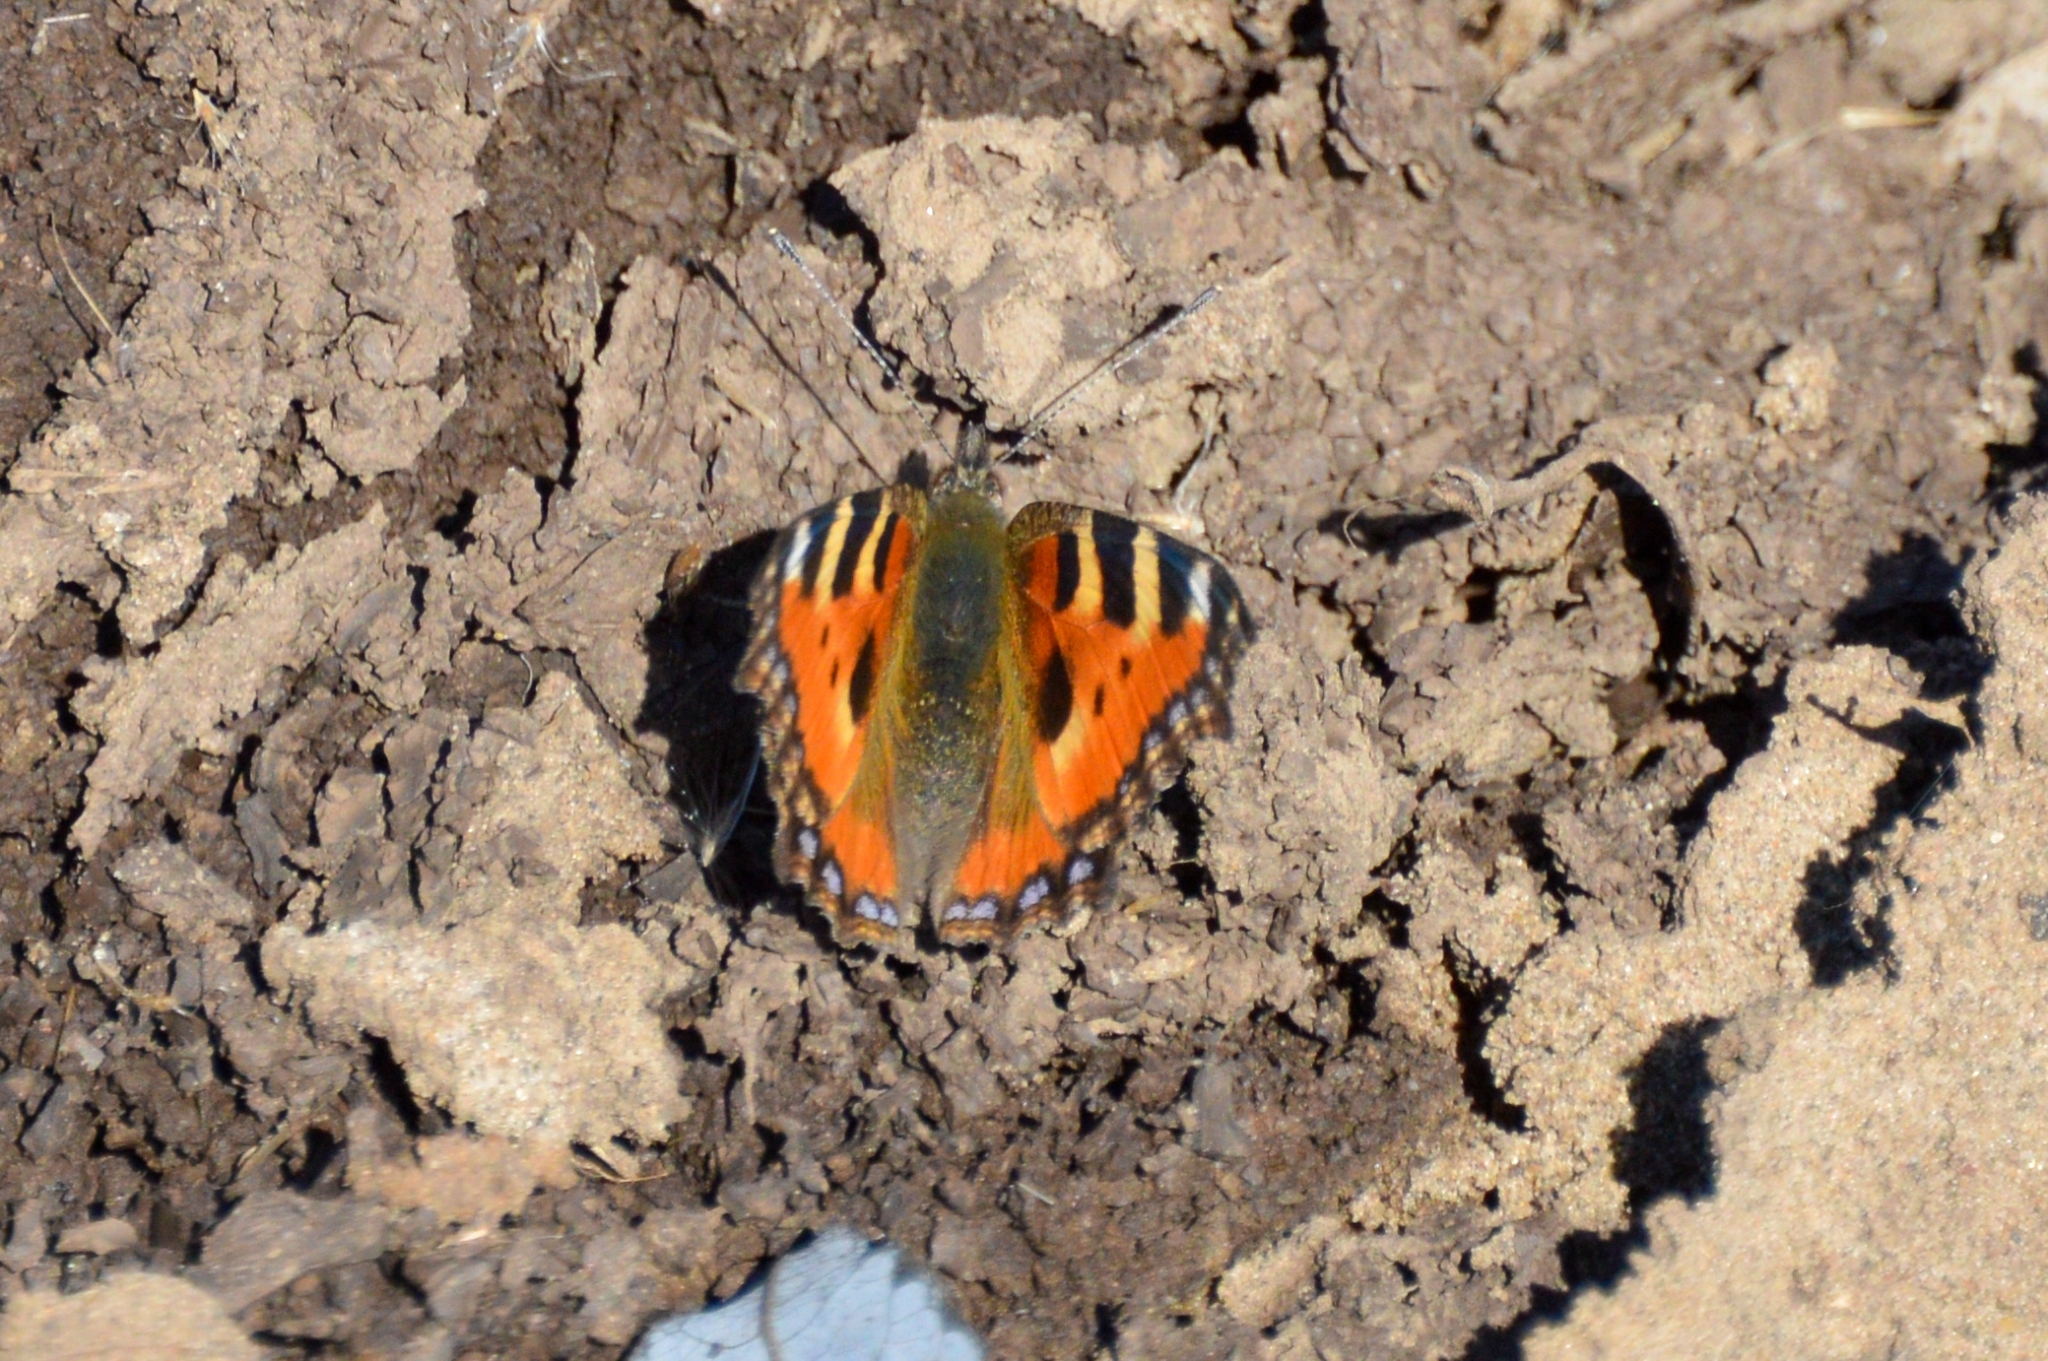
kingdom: Animalia
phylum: Arthropoda
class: Insecta
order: Lepidoptera
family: Nymphalidae
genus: Aglais
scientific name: Aglais urticae
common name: Small tortoiseshell
